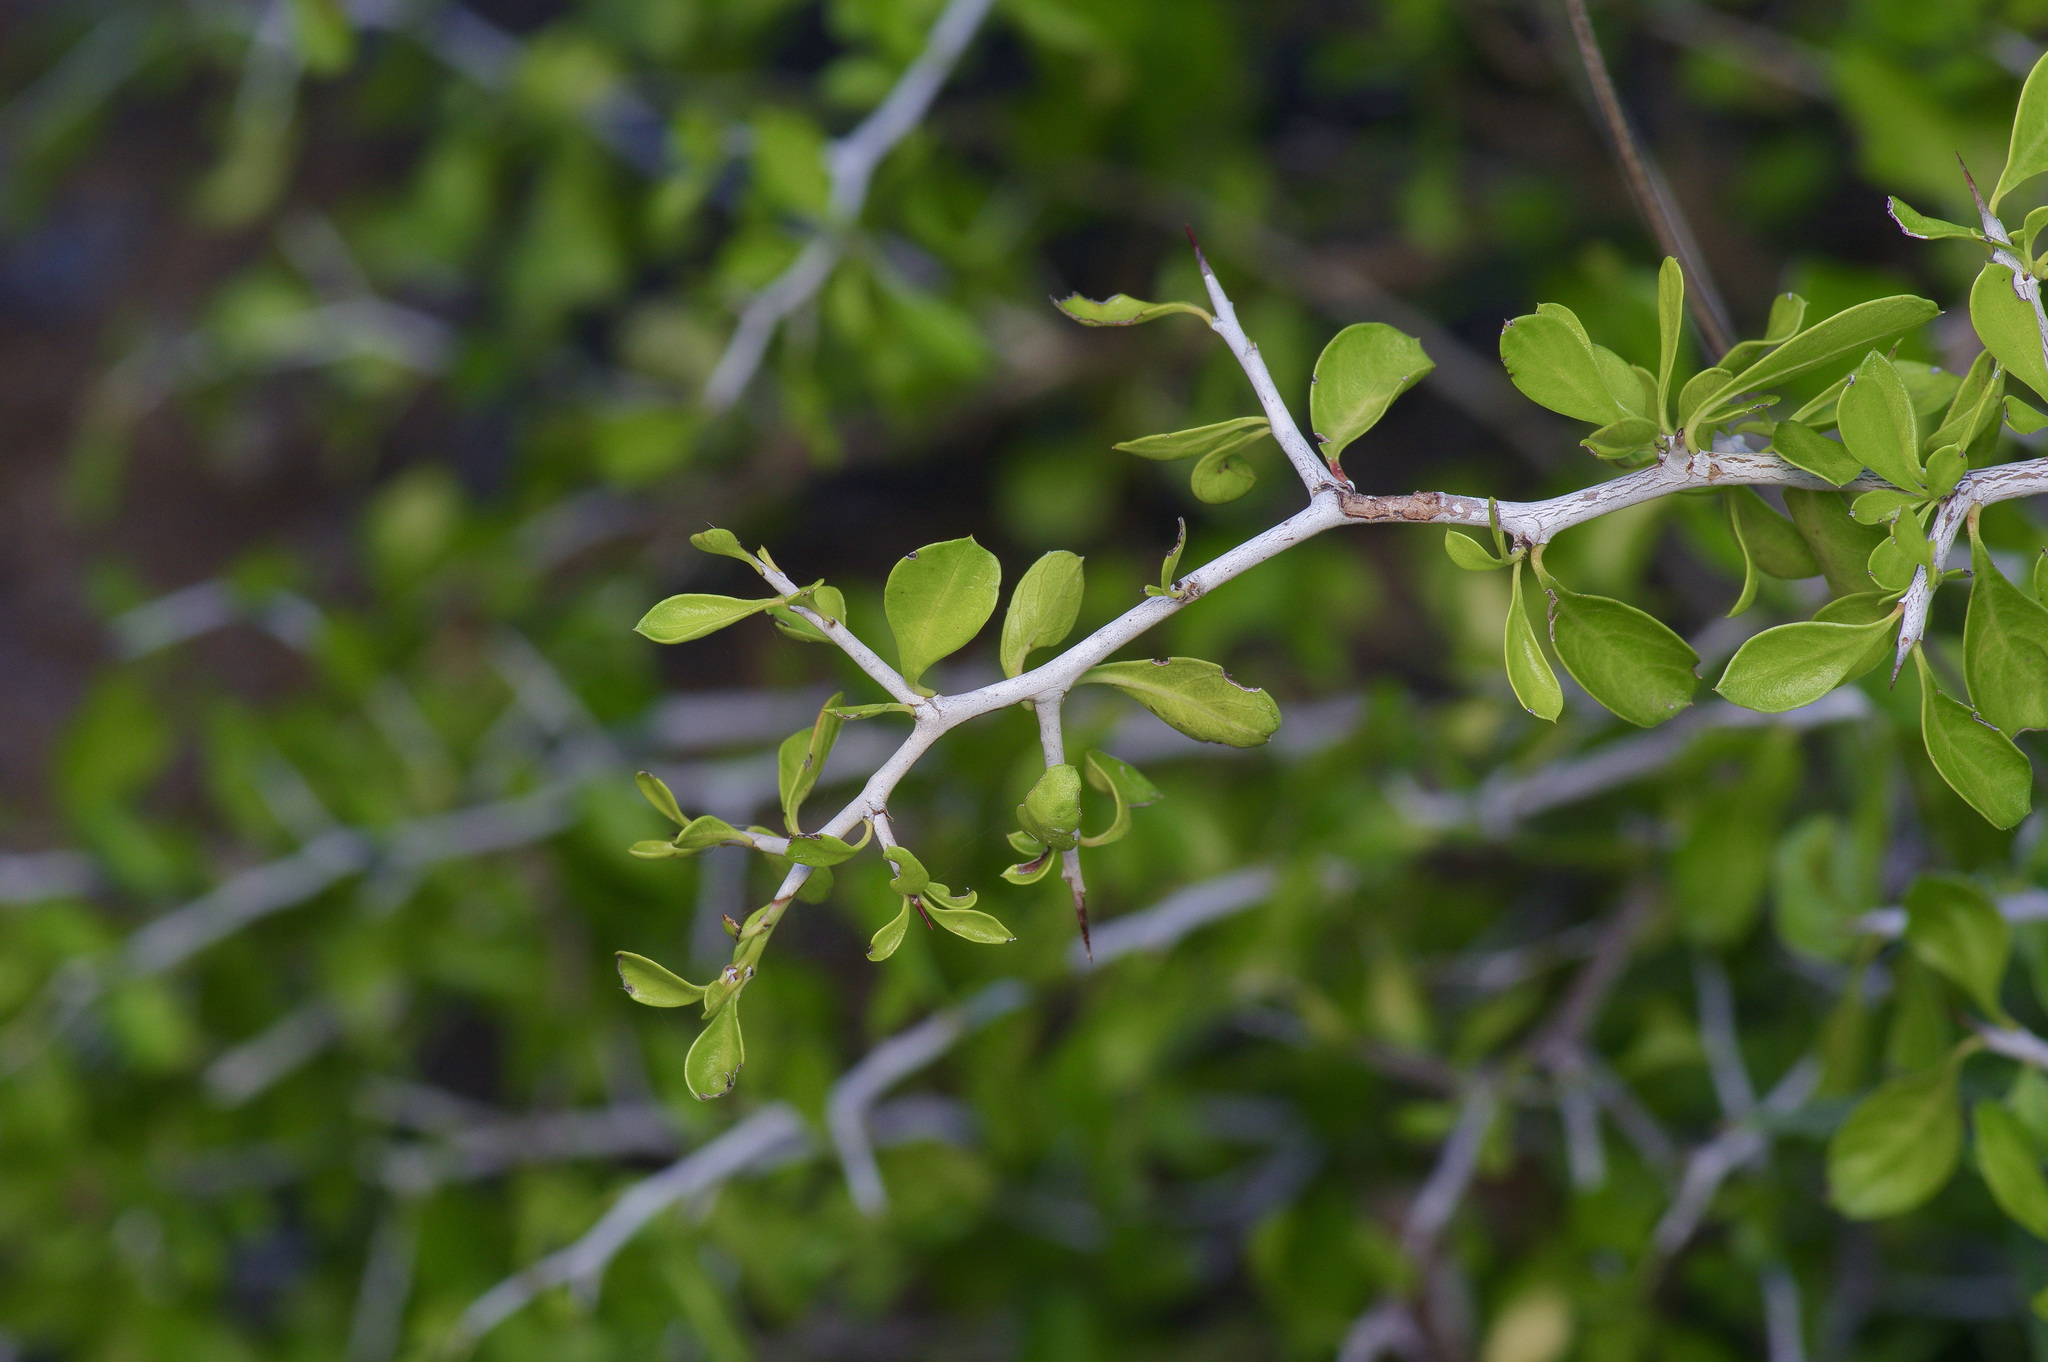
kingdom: Plantae
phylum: Tracheophyta
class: Magnoliopsida
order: Rosales
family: Rhamnaceae
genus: Condalia
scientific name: Condalia hookeri
